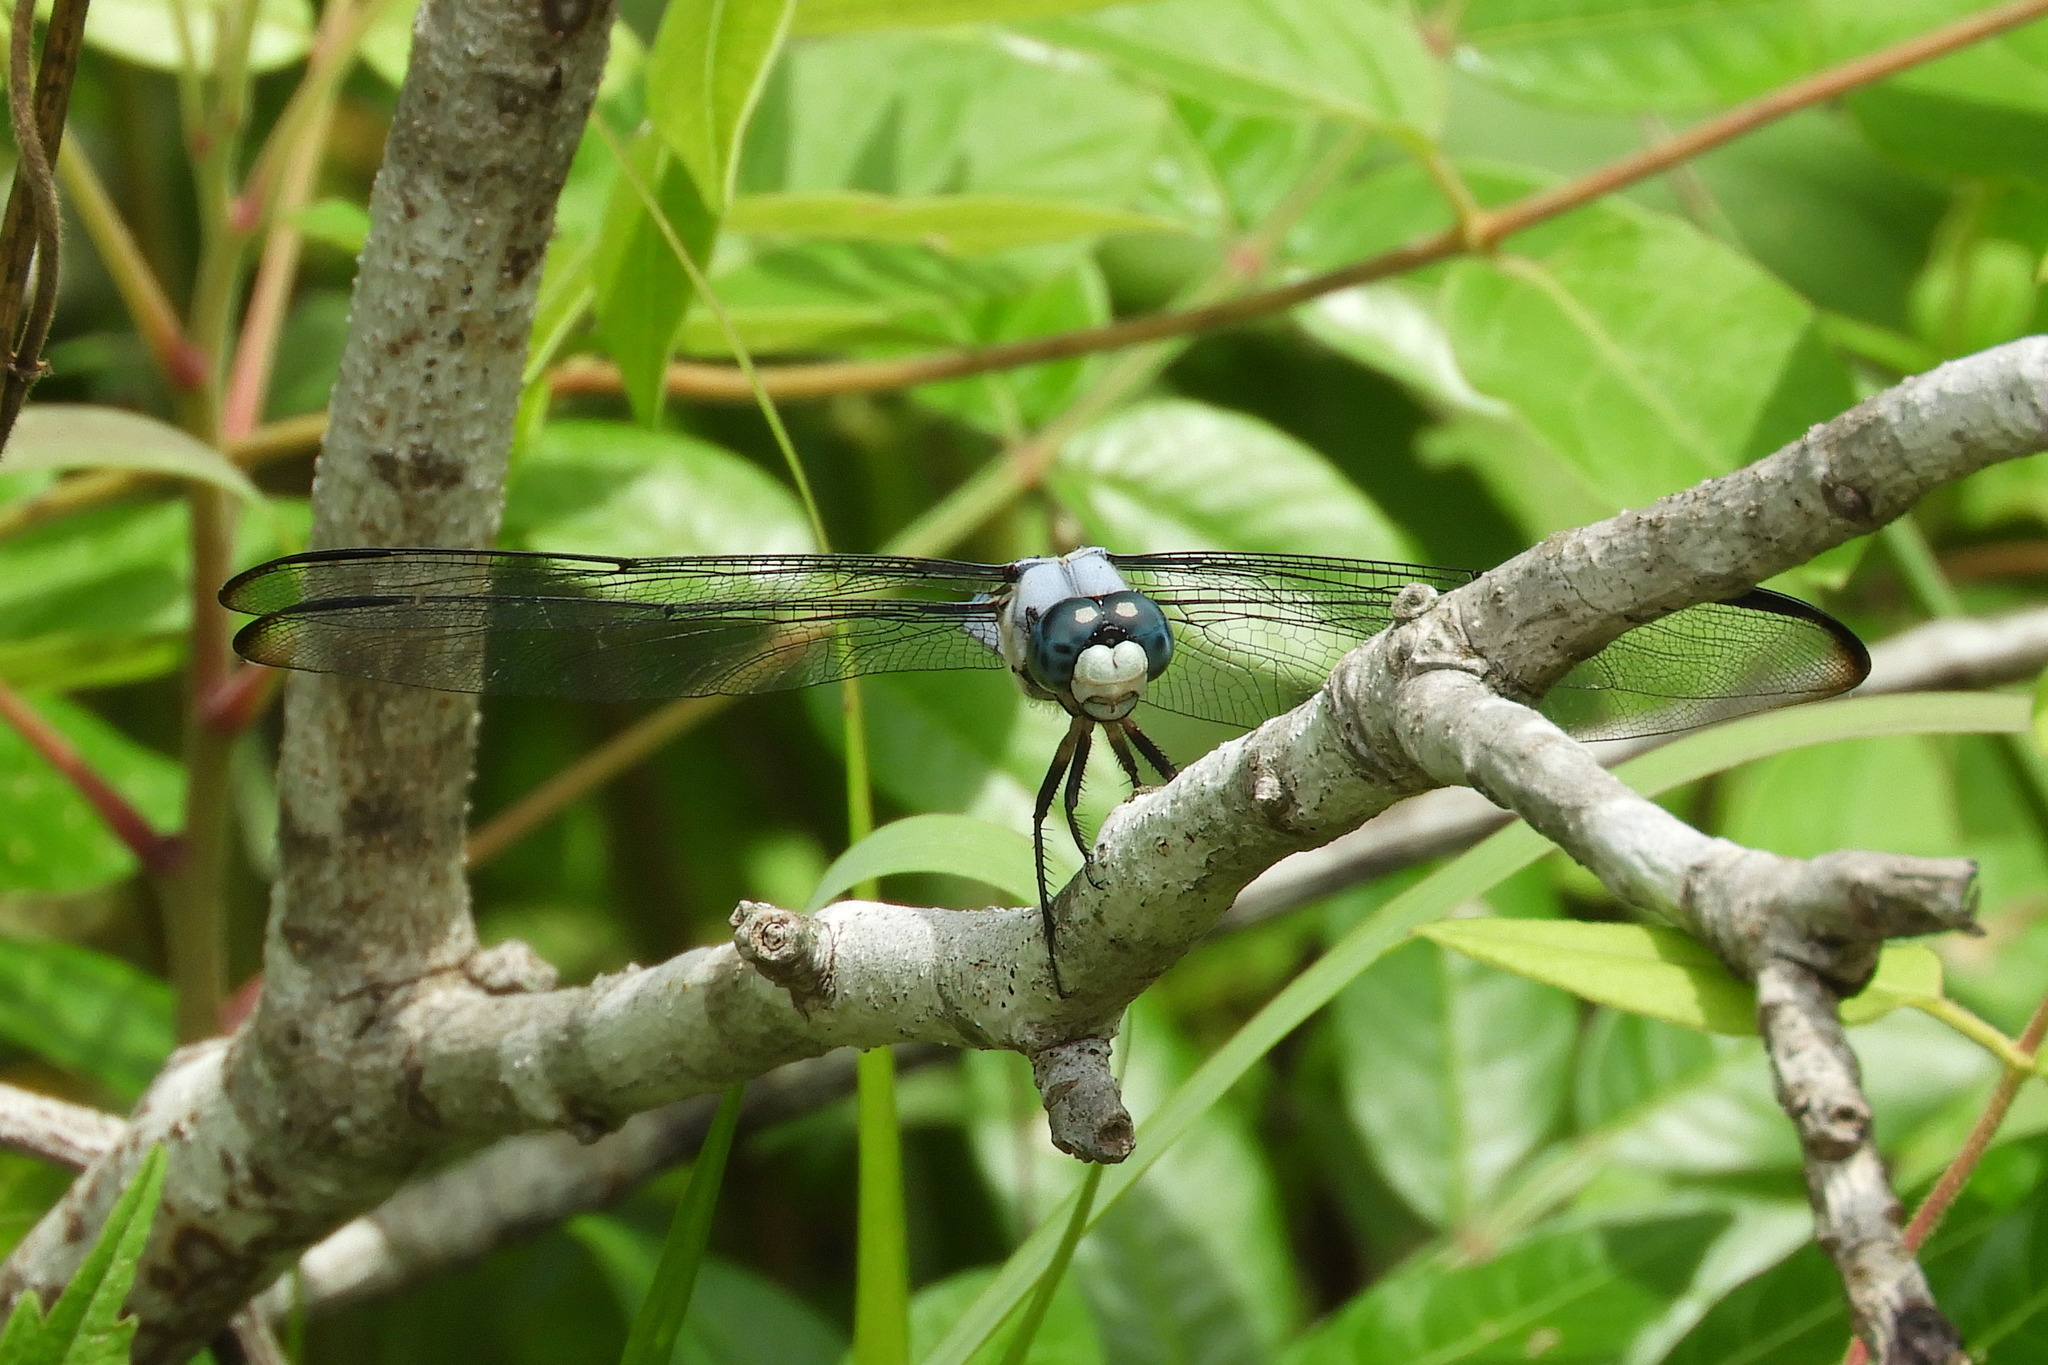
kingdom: Animalia
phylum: Arthropoda
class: Insecta
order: Odonata
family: Libellulidae
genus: Libellula
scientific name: Libellula vibrans
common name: Great blue skimmer
